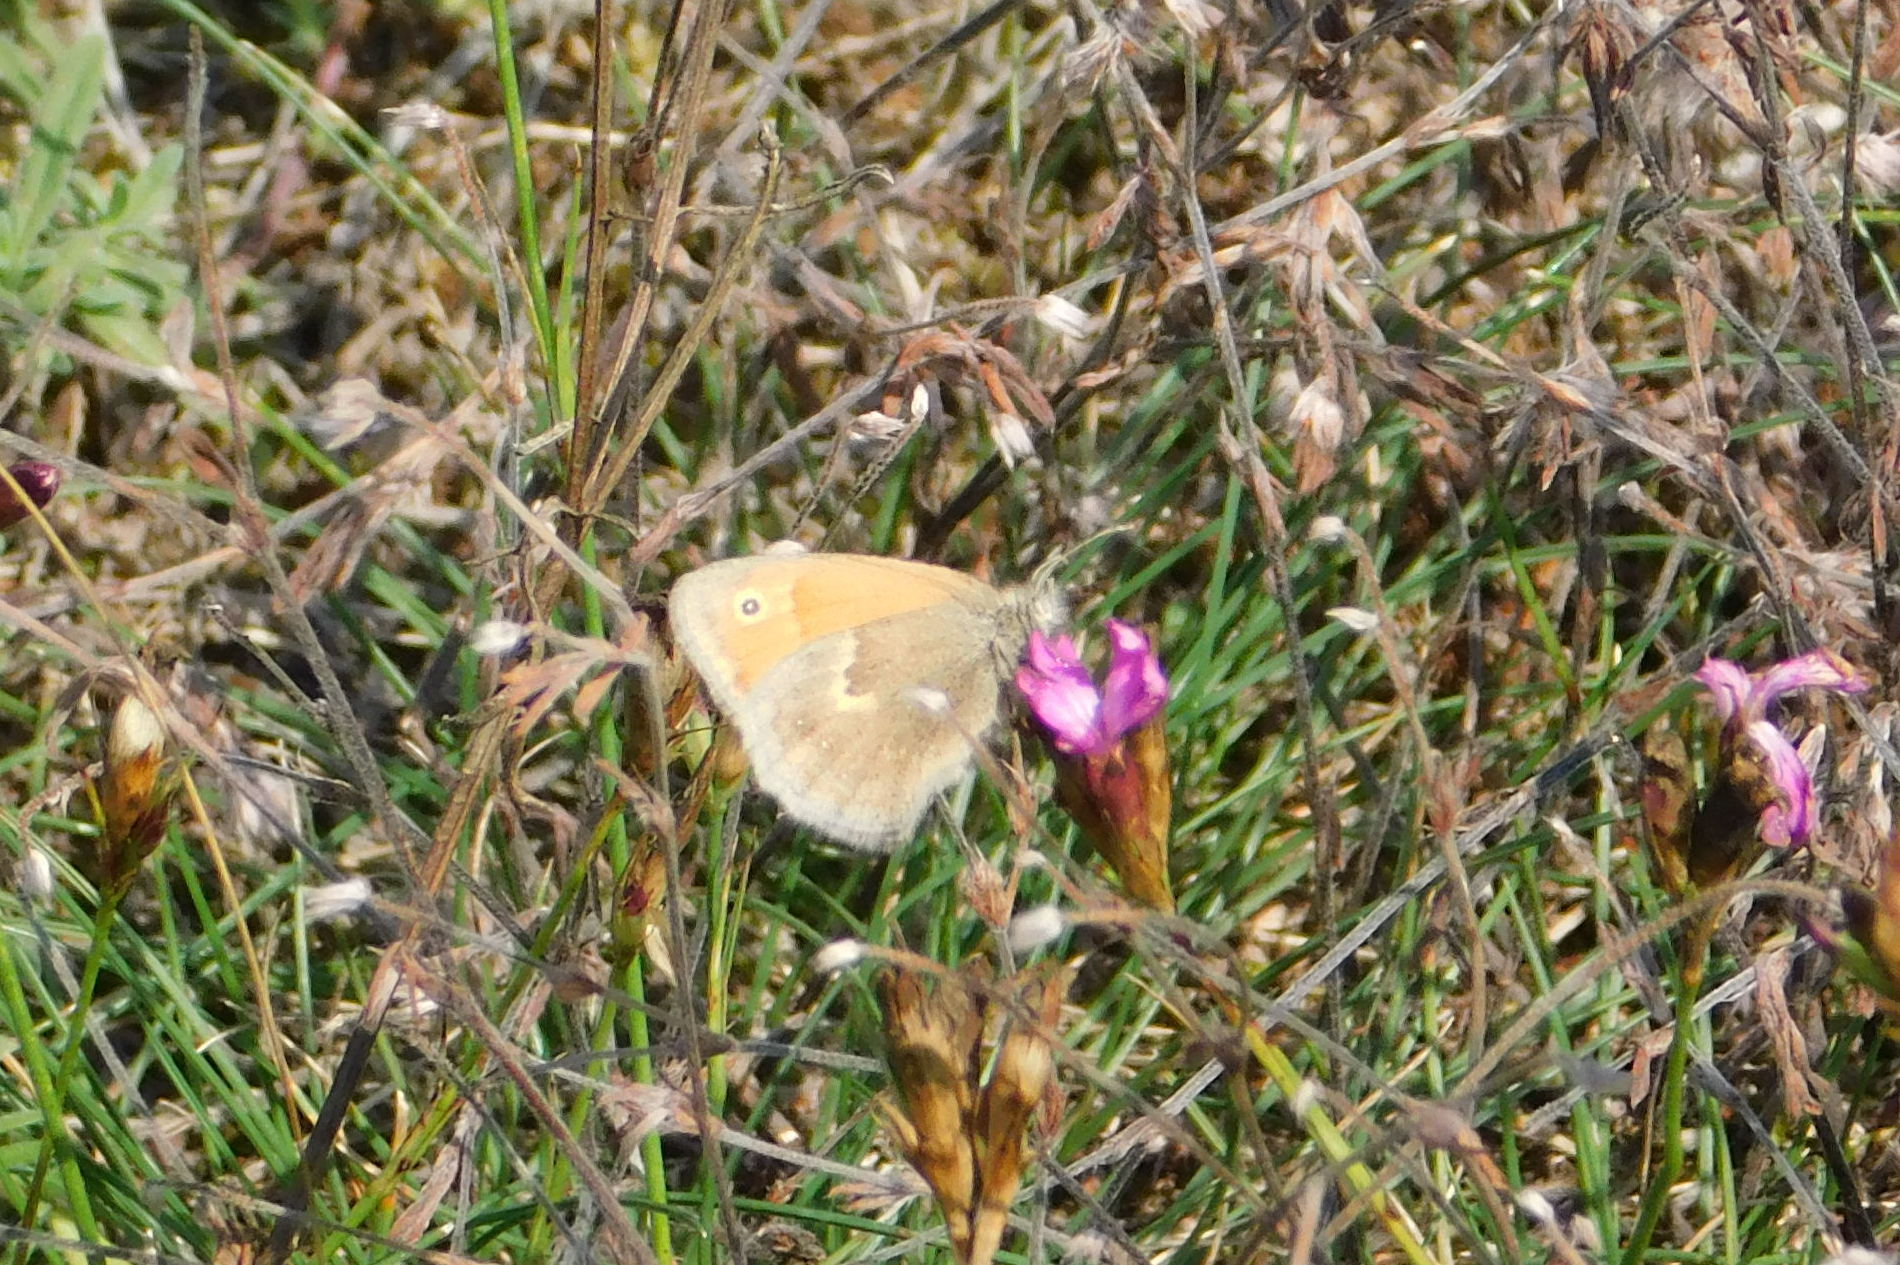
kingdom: Animalia
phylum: Arthropoda
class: Insecta
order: Lepidoptera
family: Nymphalidae
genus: Coenonympha
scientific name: Coenonympha pamphilus
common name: Small heath
